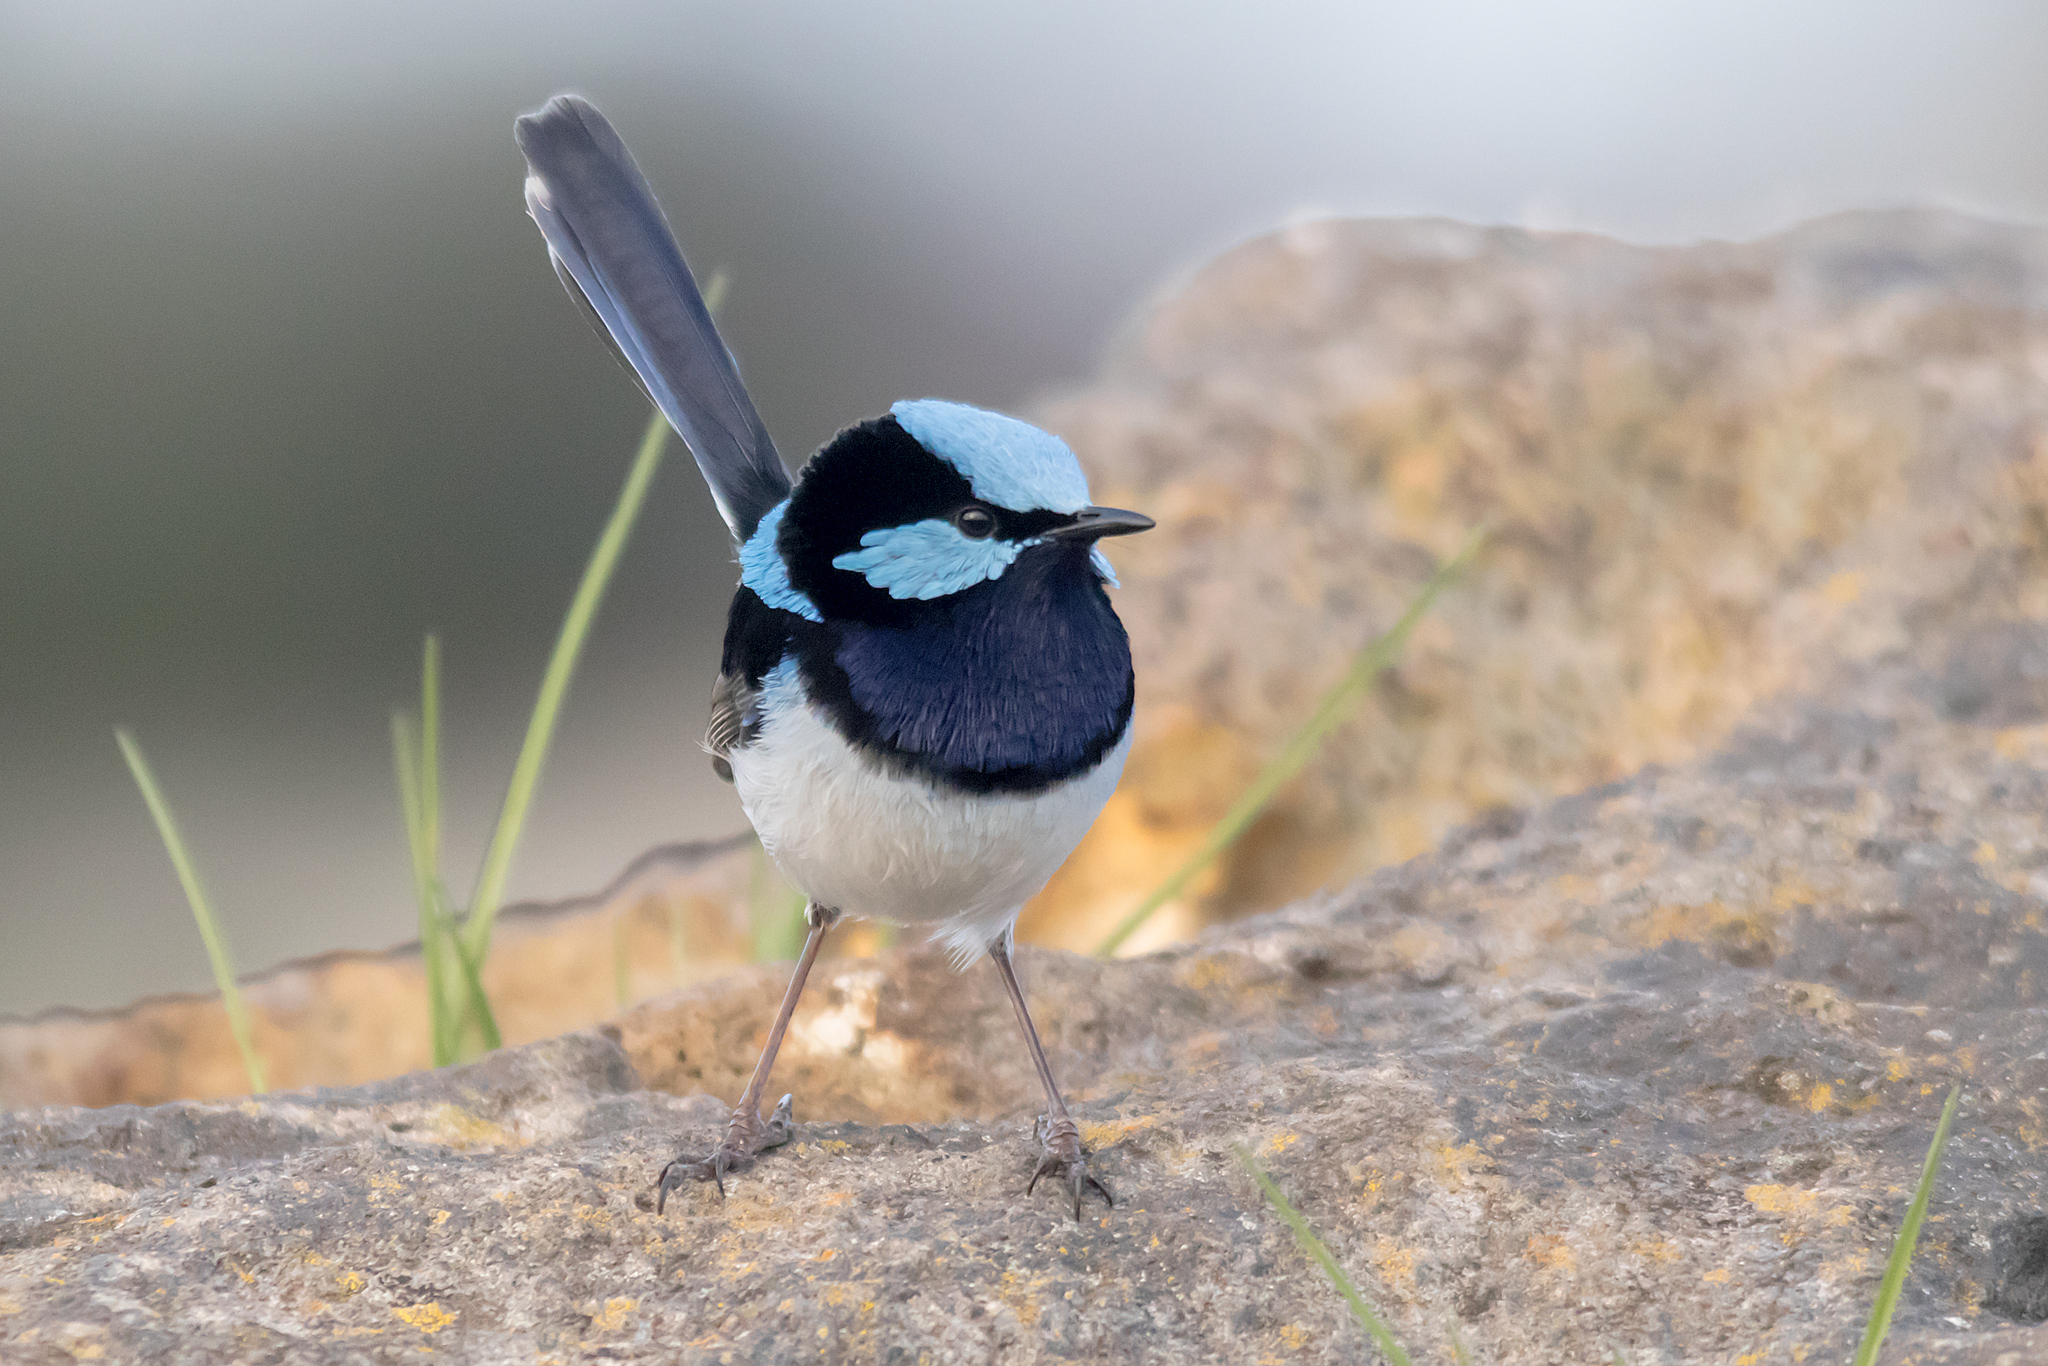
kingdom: Animalia
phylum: Chordata
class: Aves
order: Passeriformes
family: Maluridae
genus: Malurus
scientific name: Malurus cyaneus
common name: Superb fairywren
